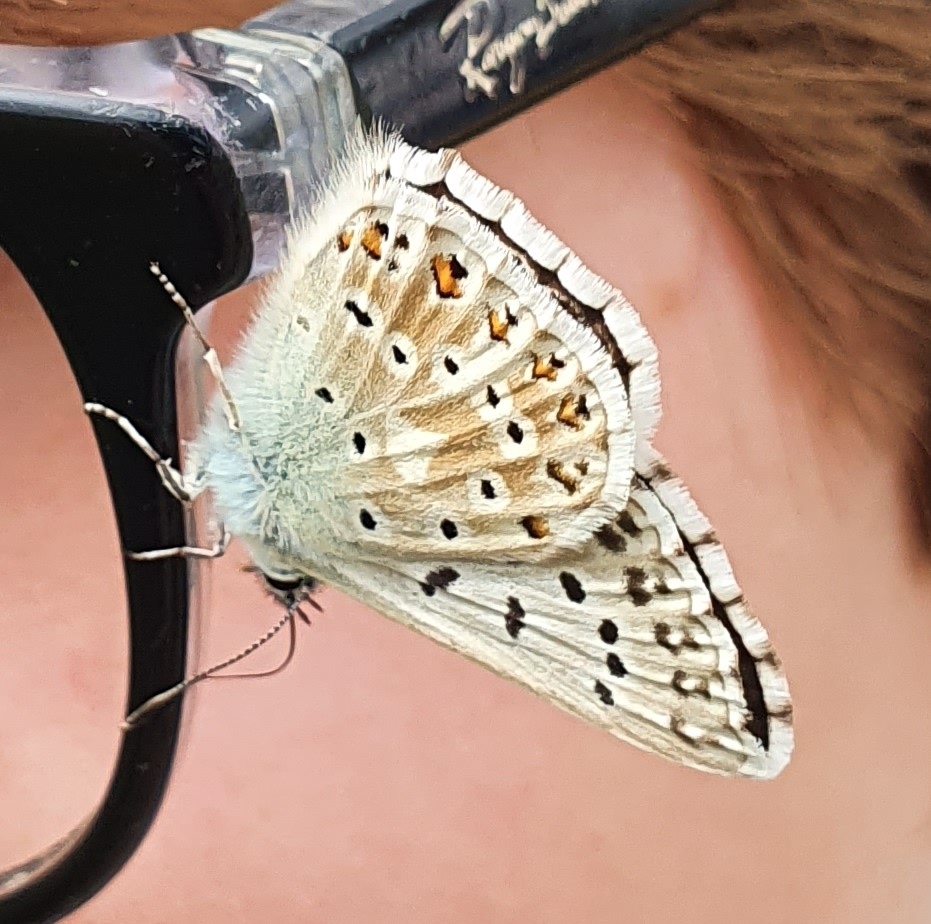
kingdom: Animalia
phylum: Arthropoda
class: Insecta
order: Lepidoptera
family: Lycaenidae
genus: Lysandra
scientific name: Lysandra coridon
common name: Chalkhill blue
